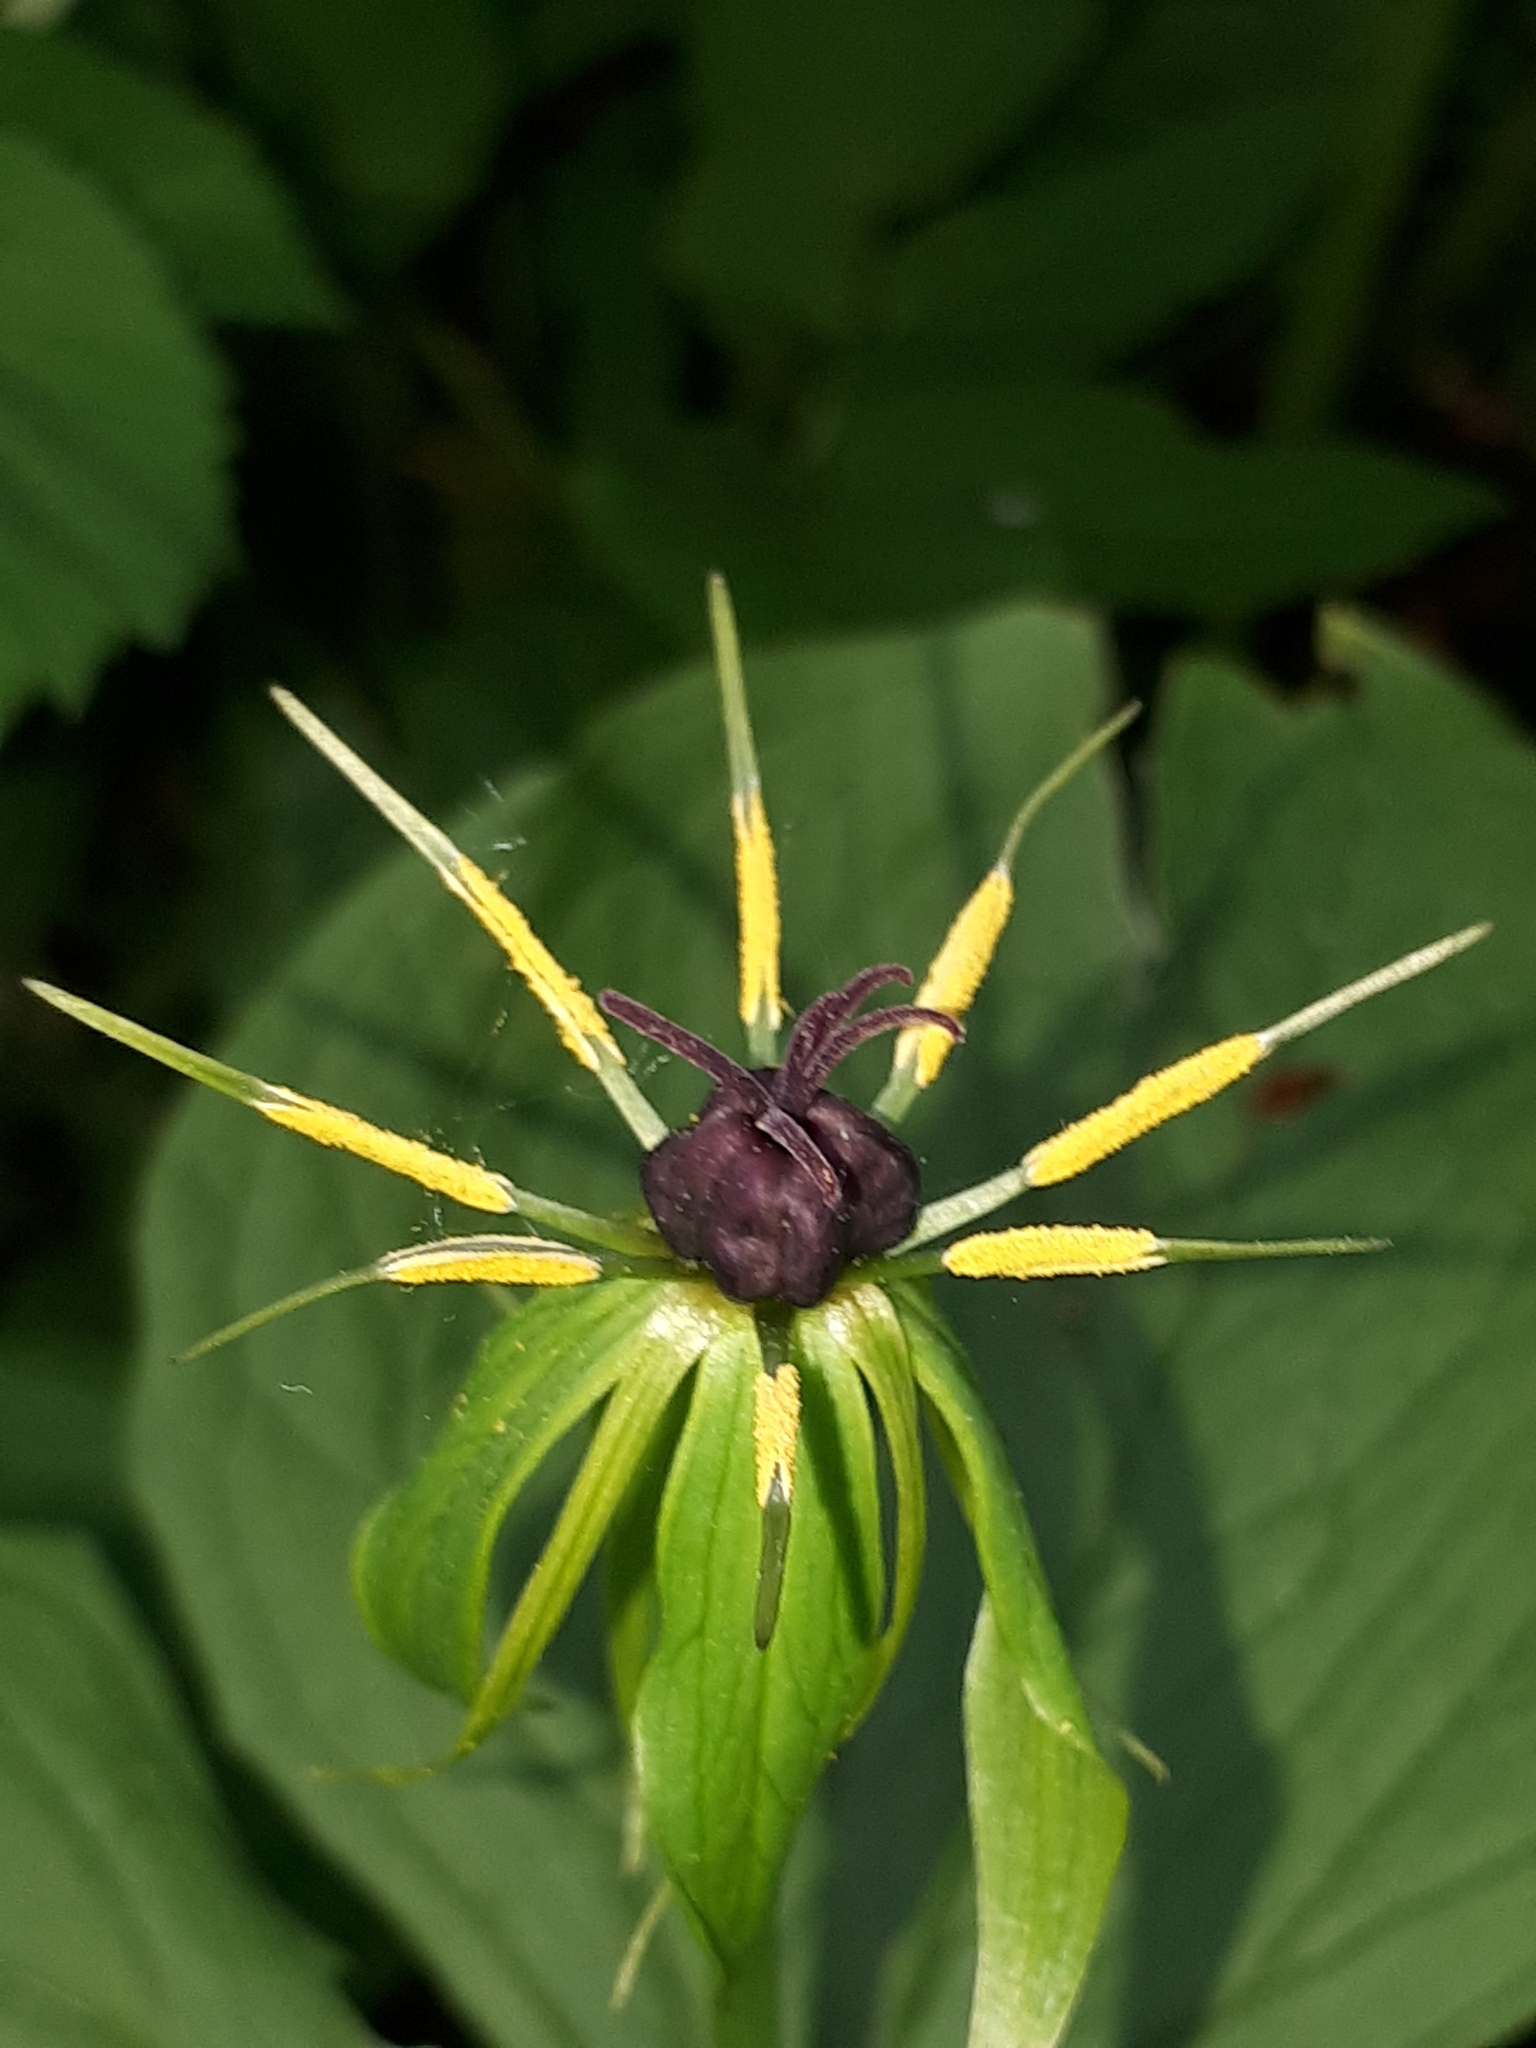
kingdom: Plantae
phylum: Tracheophyta
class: Liliopsida
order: Liliales
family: Melanthiaceae
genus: Paris
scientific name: Paris quadrifolia
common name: Herb-paris
